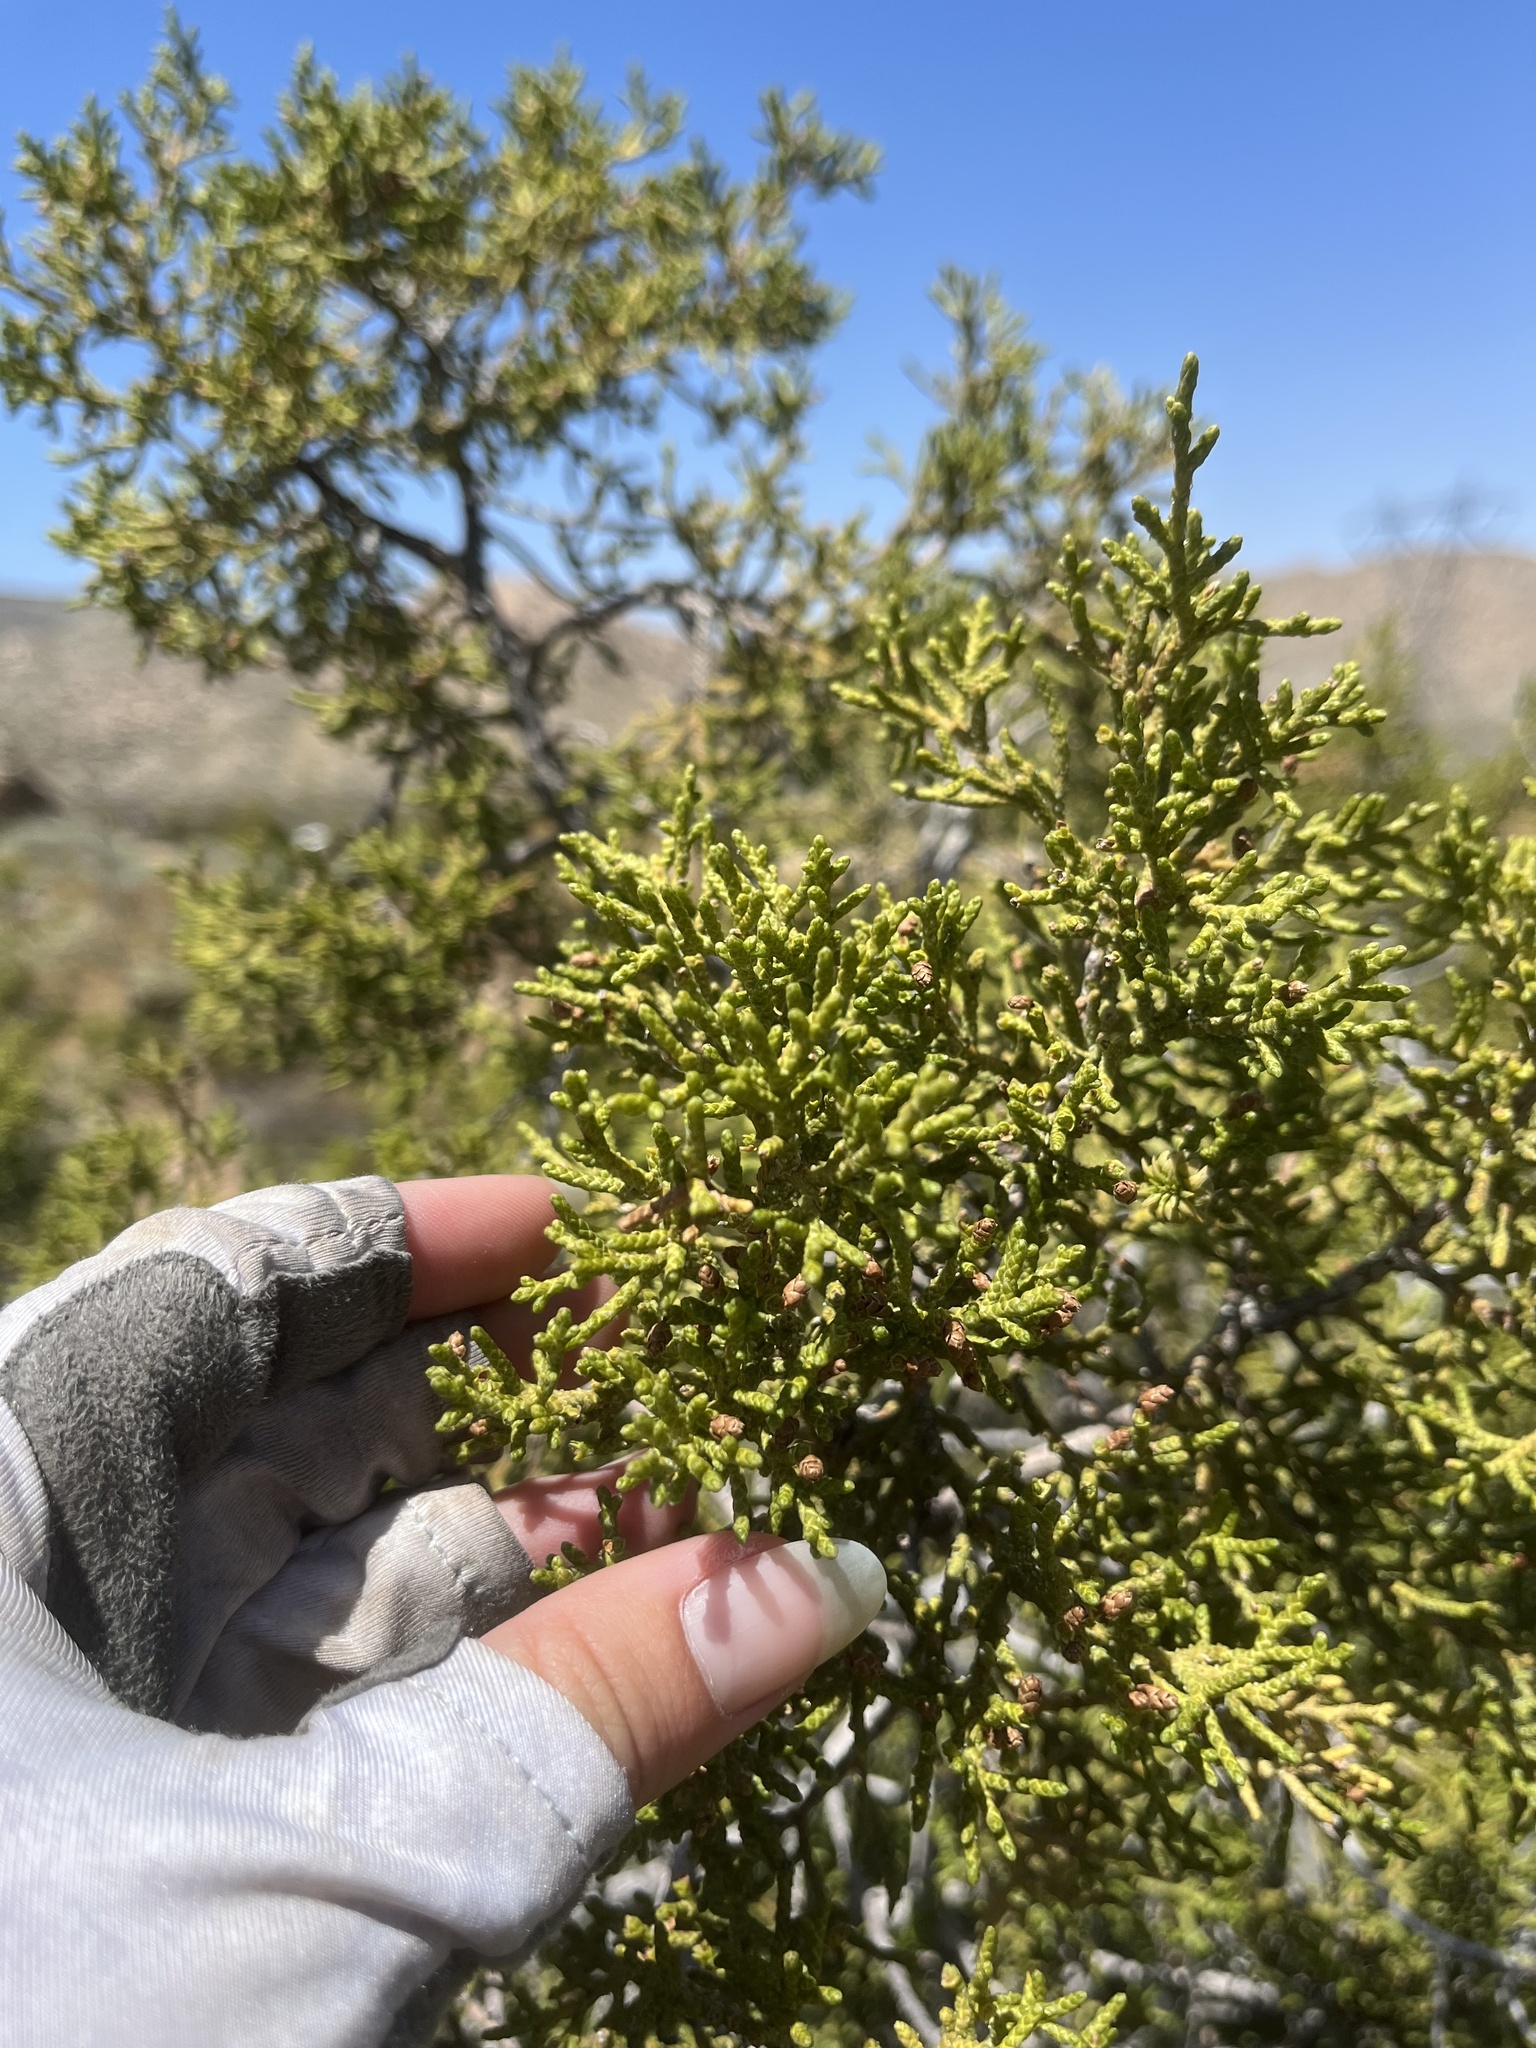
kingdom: Plantae
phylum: Tracheophyta
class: Pinopsida
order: Pinales
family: Cupressaceae
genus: Juniperus
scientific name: Juniperus californica
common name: California juniper
